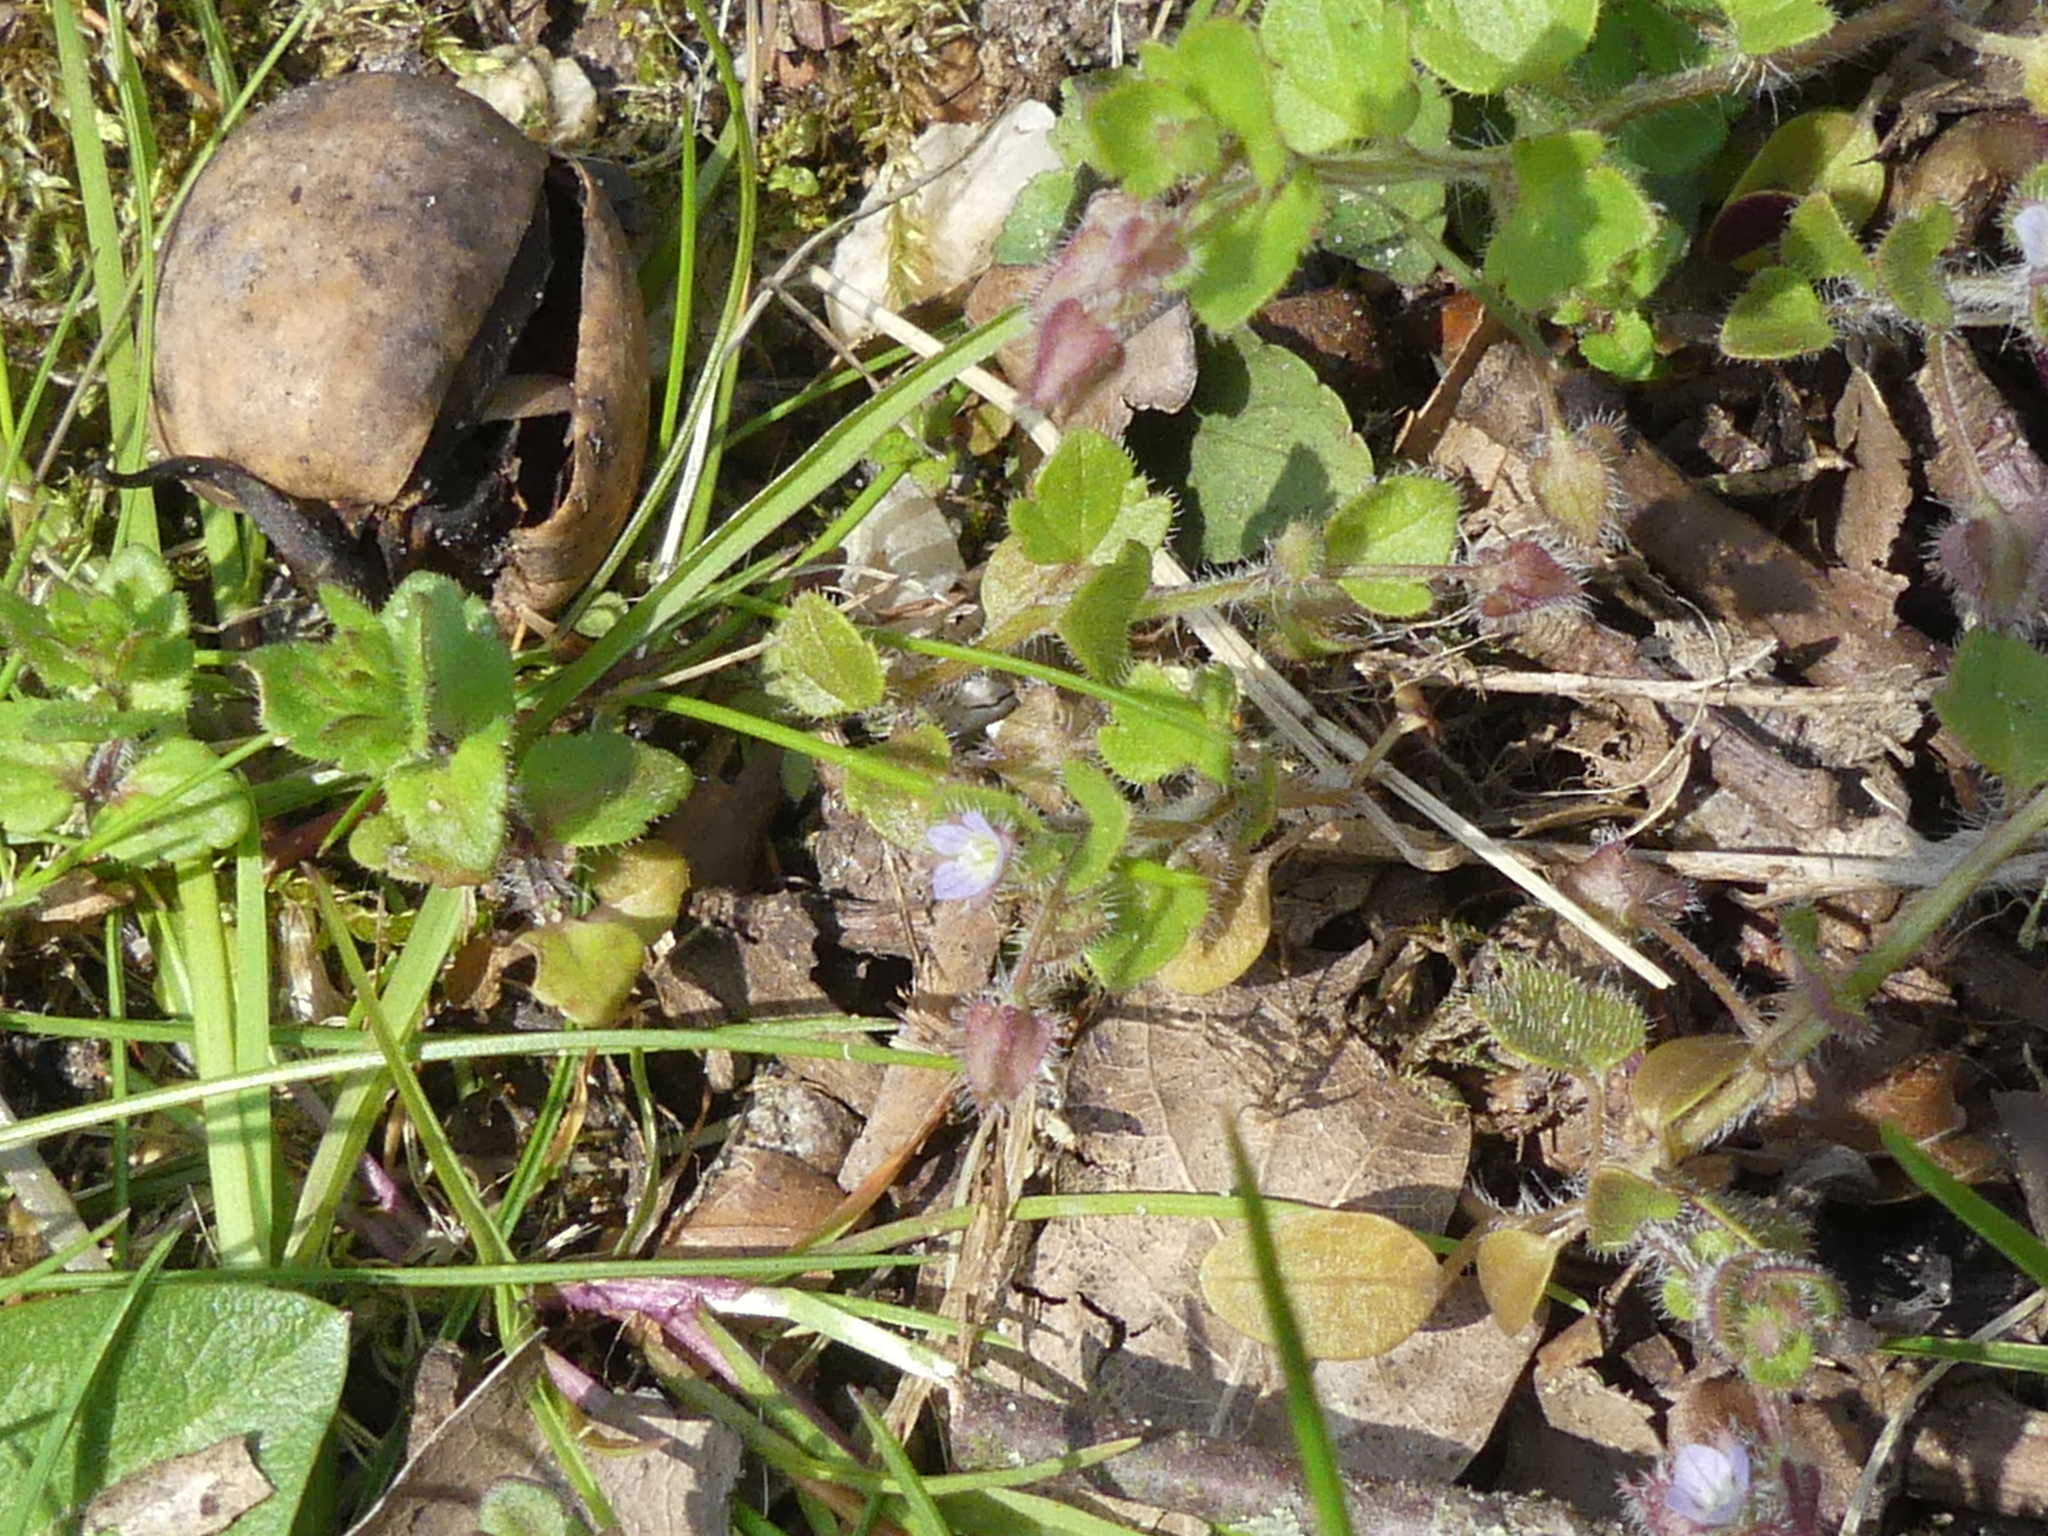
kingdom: Plantae
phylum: Tracheophyta
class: Magnoliopsida
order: Lamiales
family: Plantaginaceae
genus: Veronica
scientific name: Veronica sublobata
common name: False ivy-leaved speedwell
